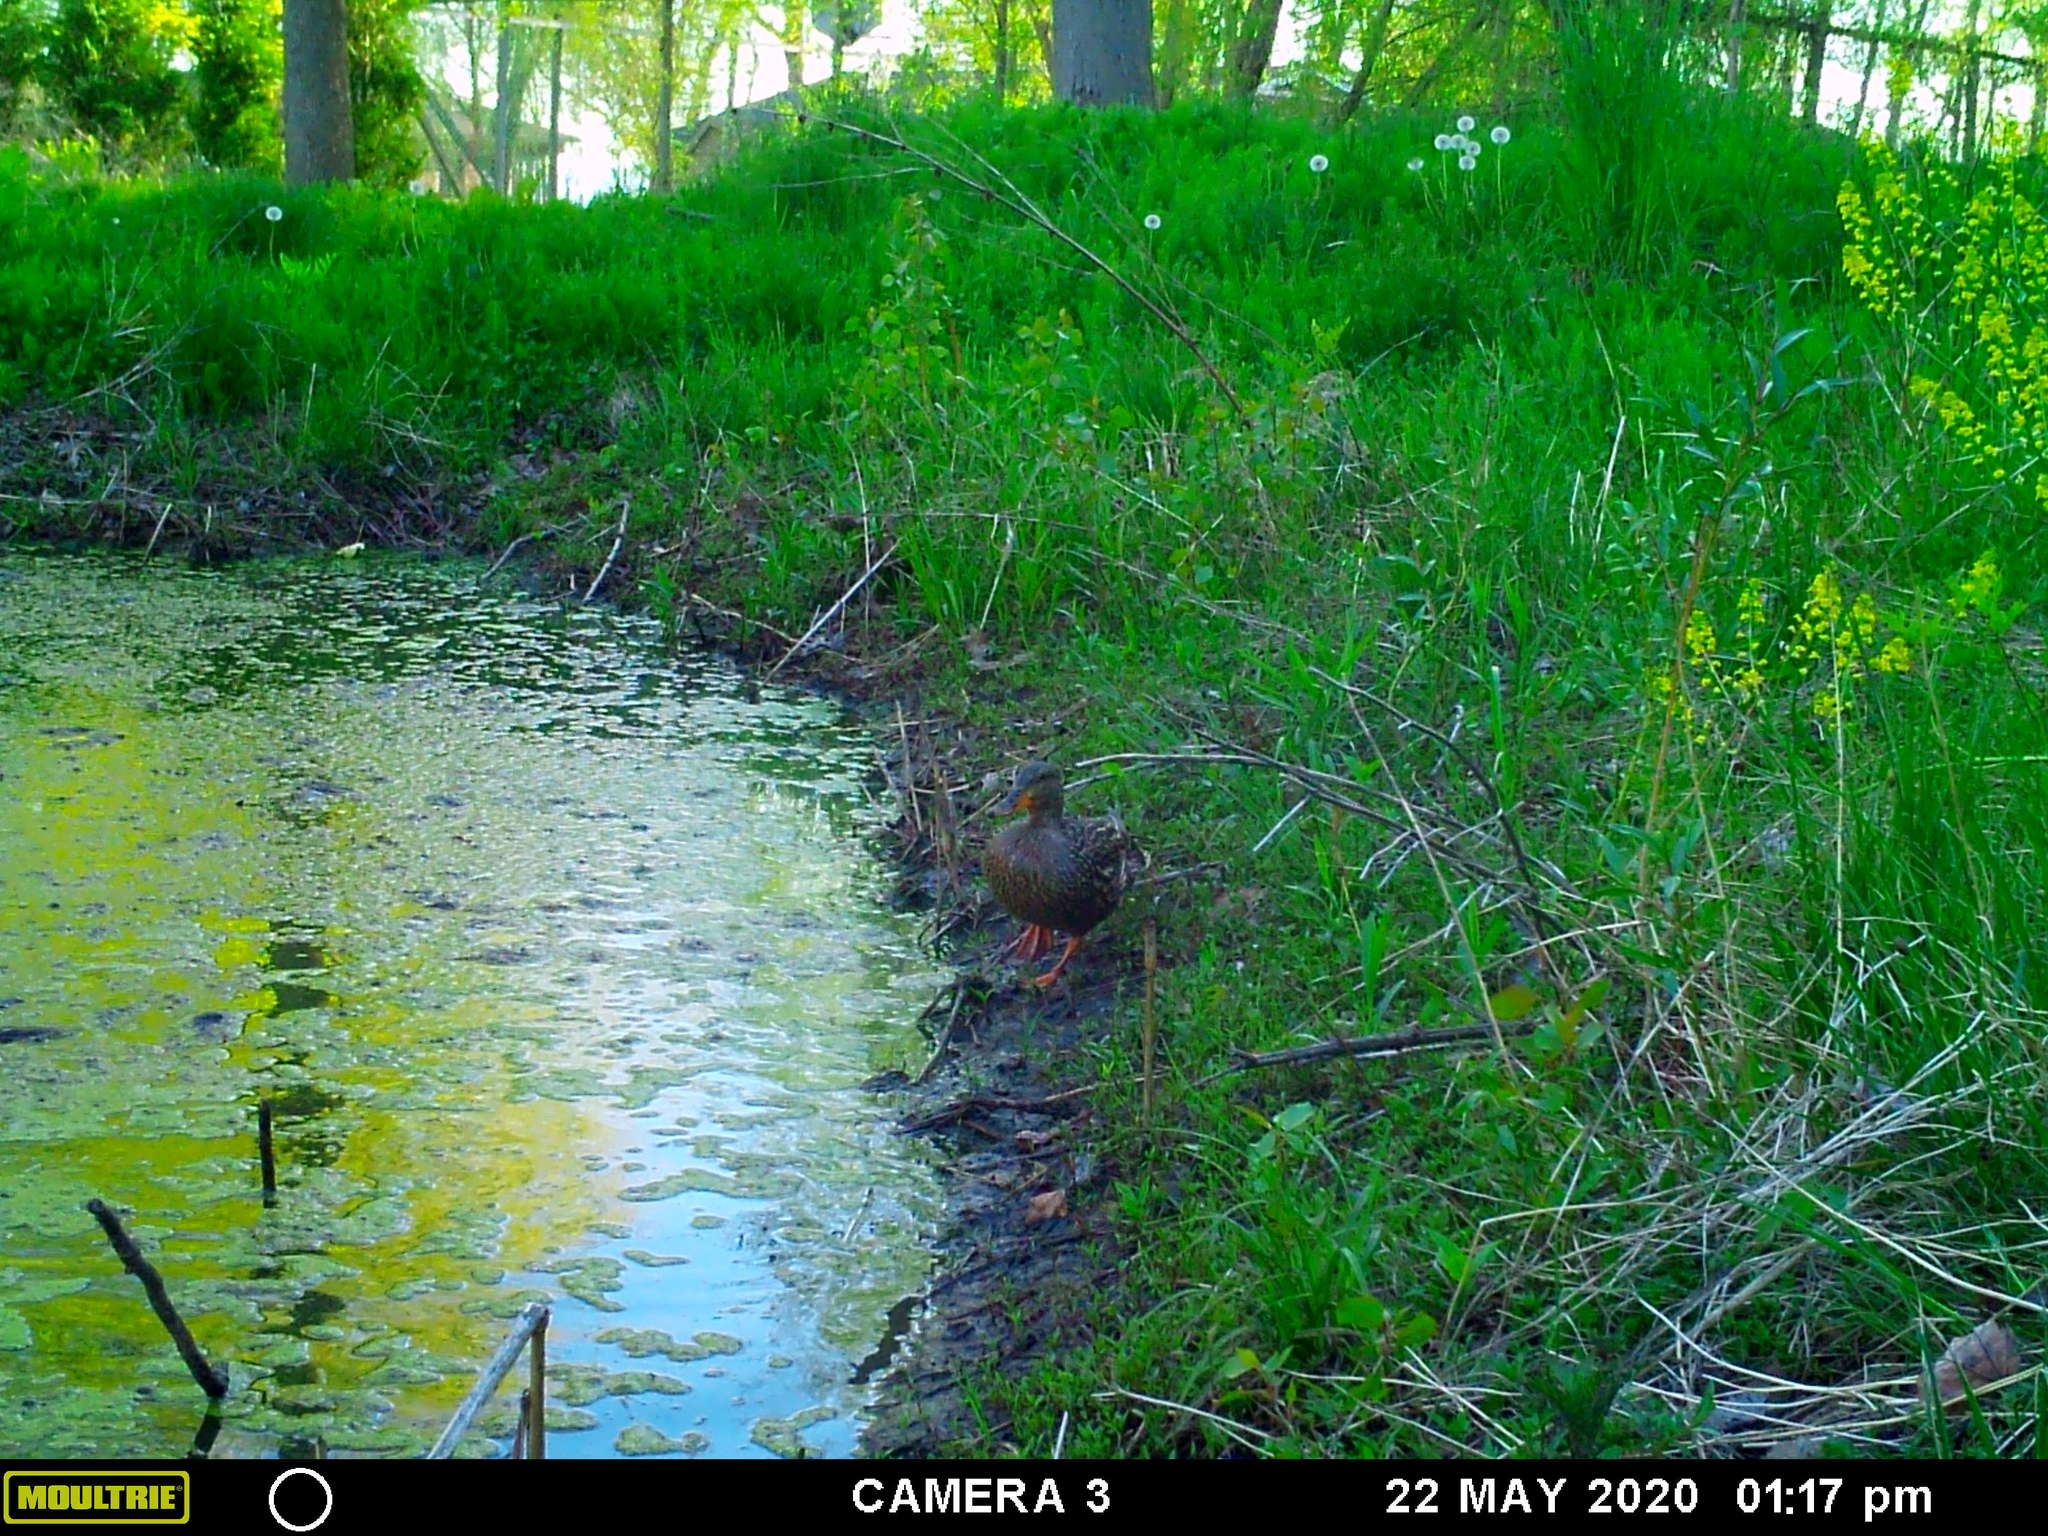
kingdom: Animalia
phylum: Chordata
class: Aves
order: Anseriformes
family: Anatidae
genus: Anas
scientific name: Anas platyrhynchos
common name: Mallard
